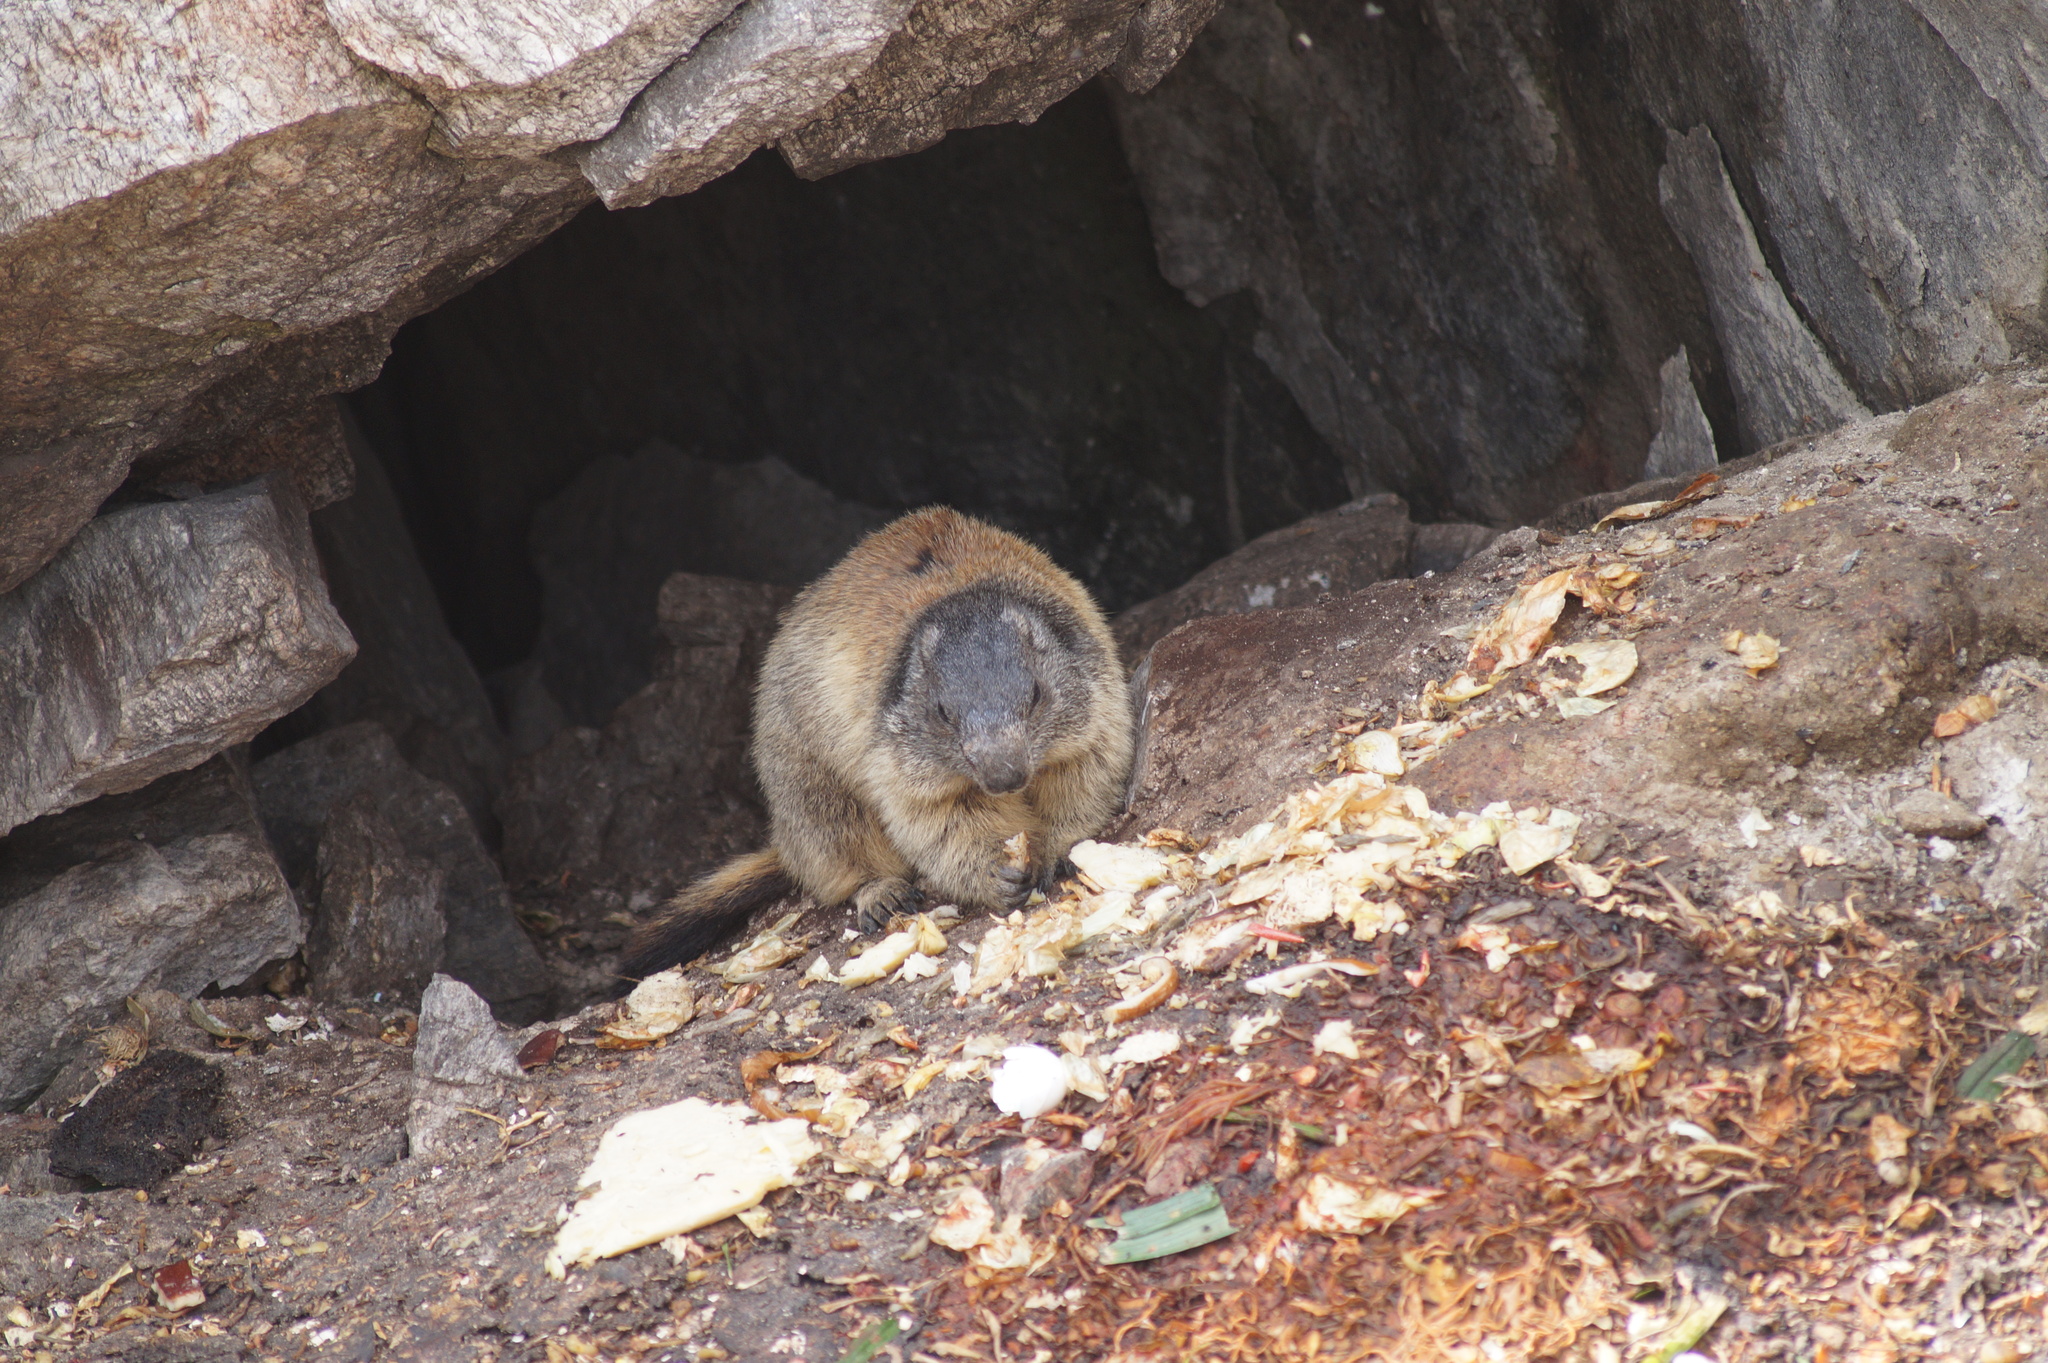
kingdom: Animalia
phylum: Chordata
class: Mammalia
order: Rodentia
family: Sciuridae
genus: Marmota
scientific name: Marmota marmota
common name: Alpine marmot
